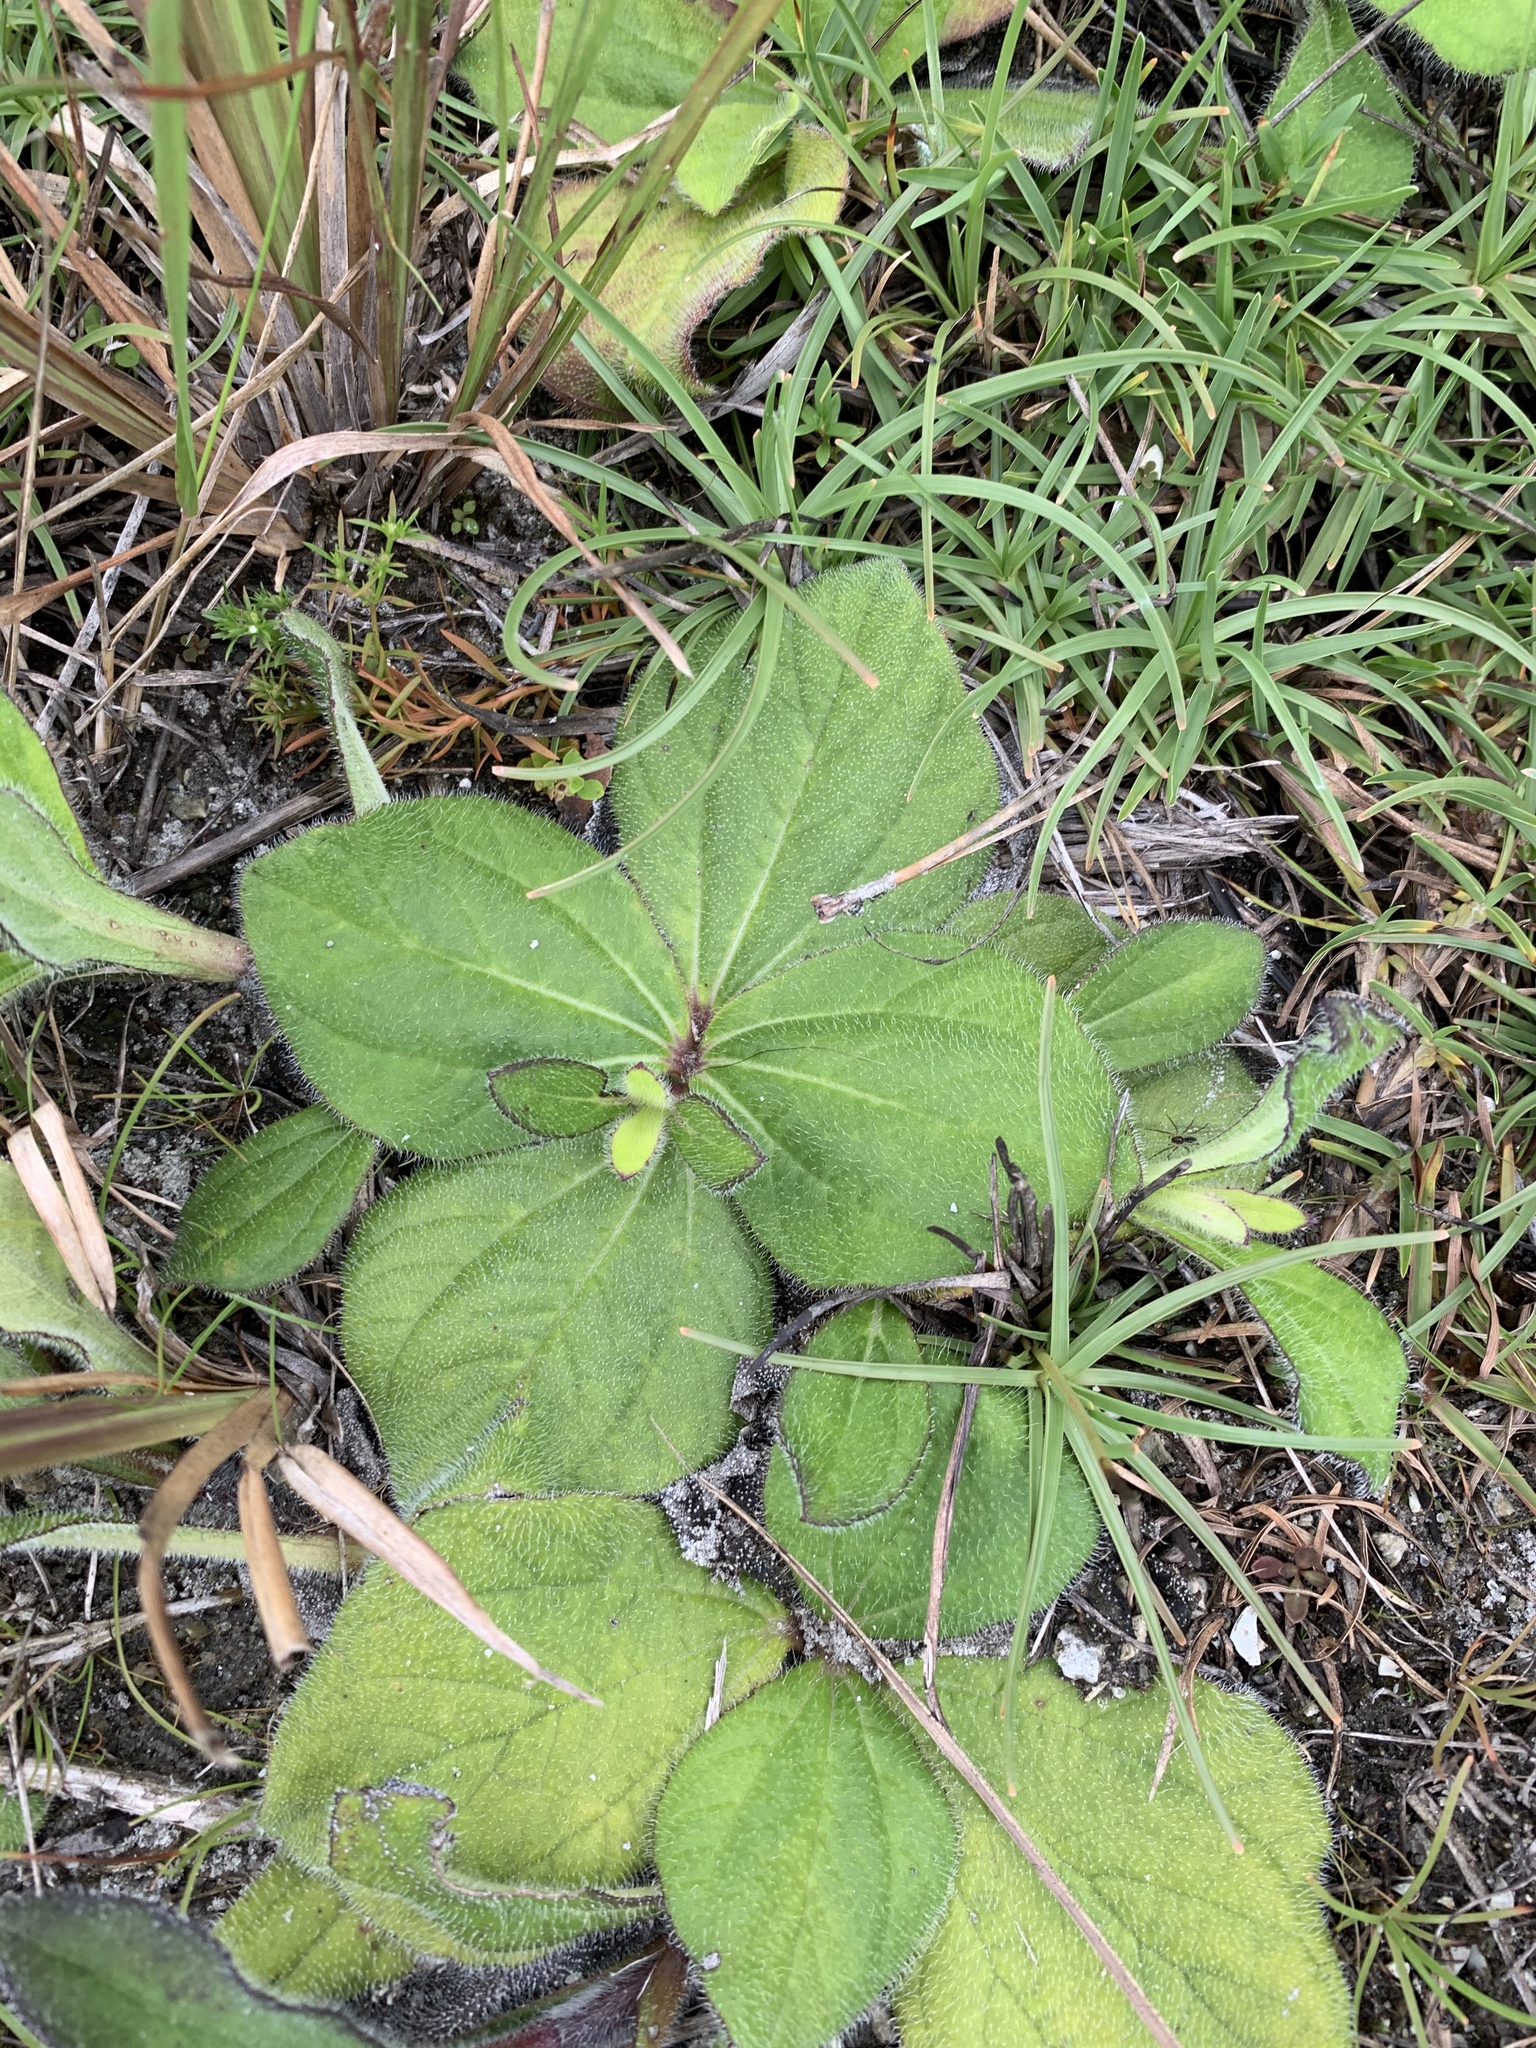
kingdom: Plantae
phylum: Tracheophyta
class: Magnoliopsida
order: Asterales
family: Asteraceae
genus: Helianthus
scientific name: Helianthus radula
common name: Pineland sunflower
